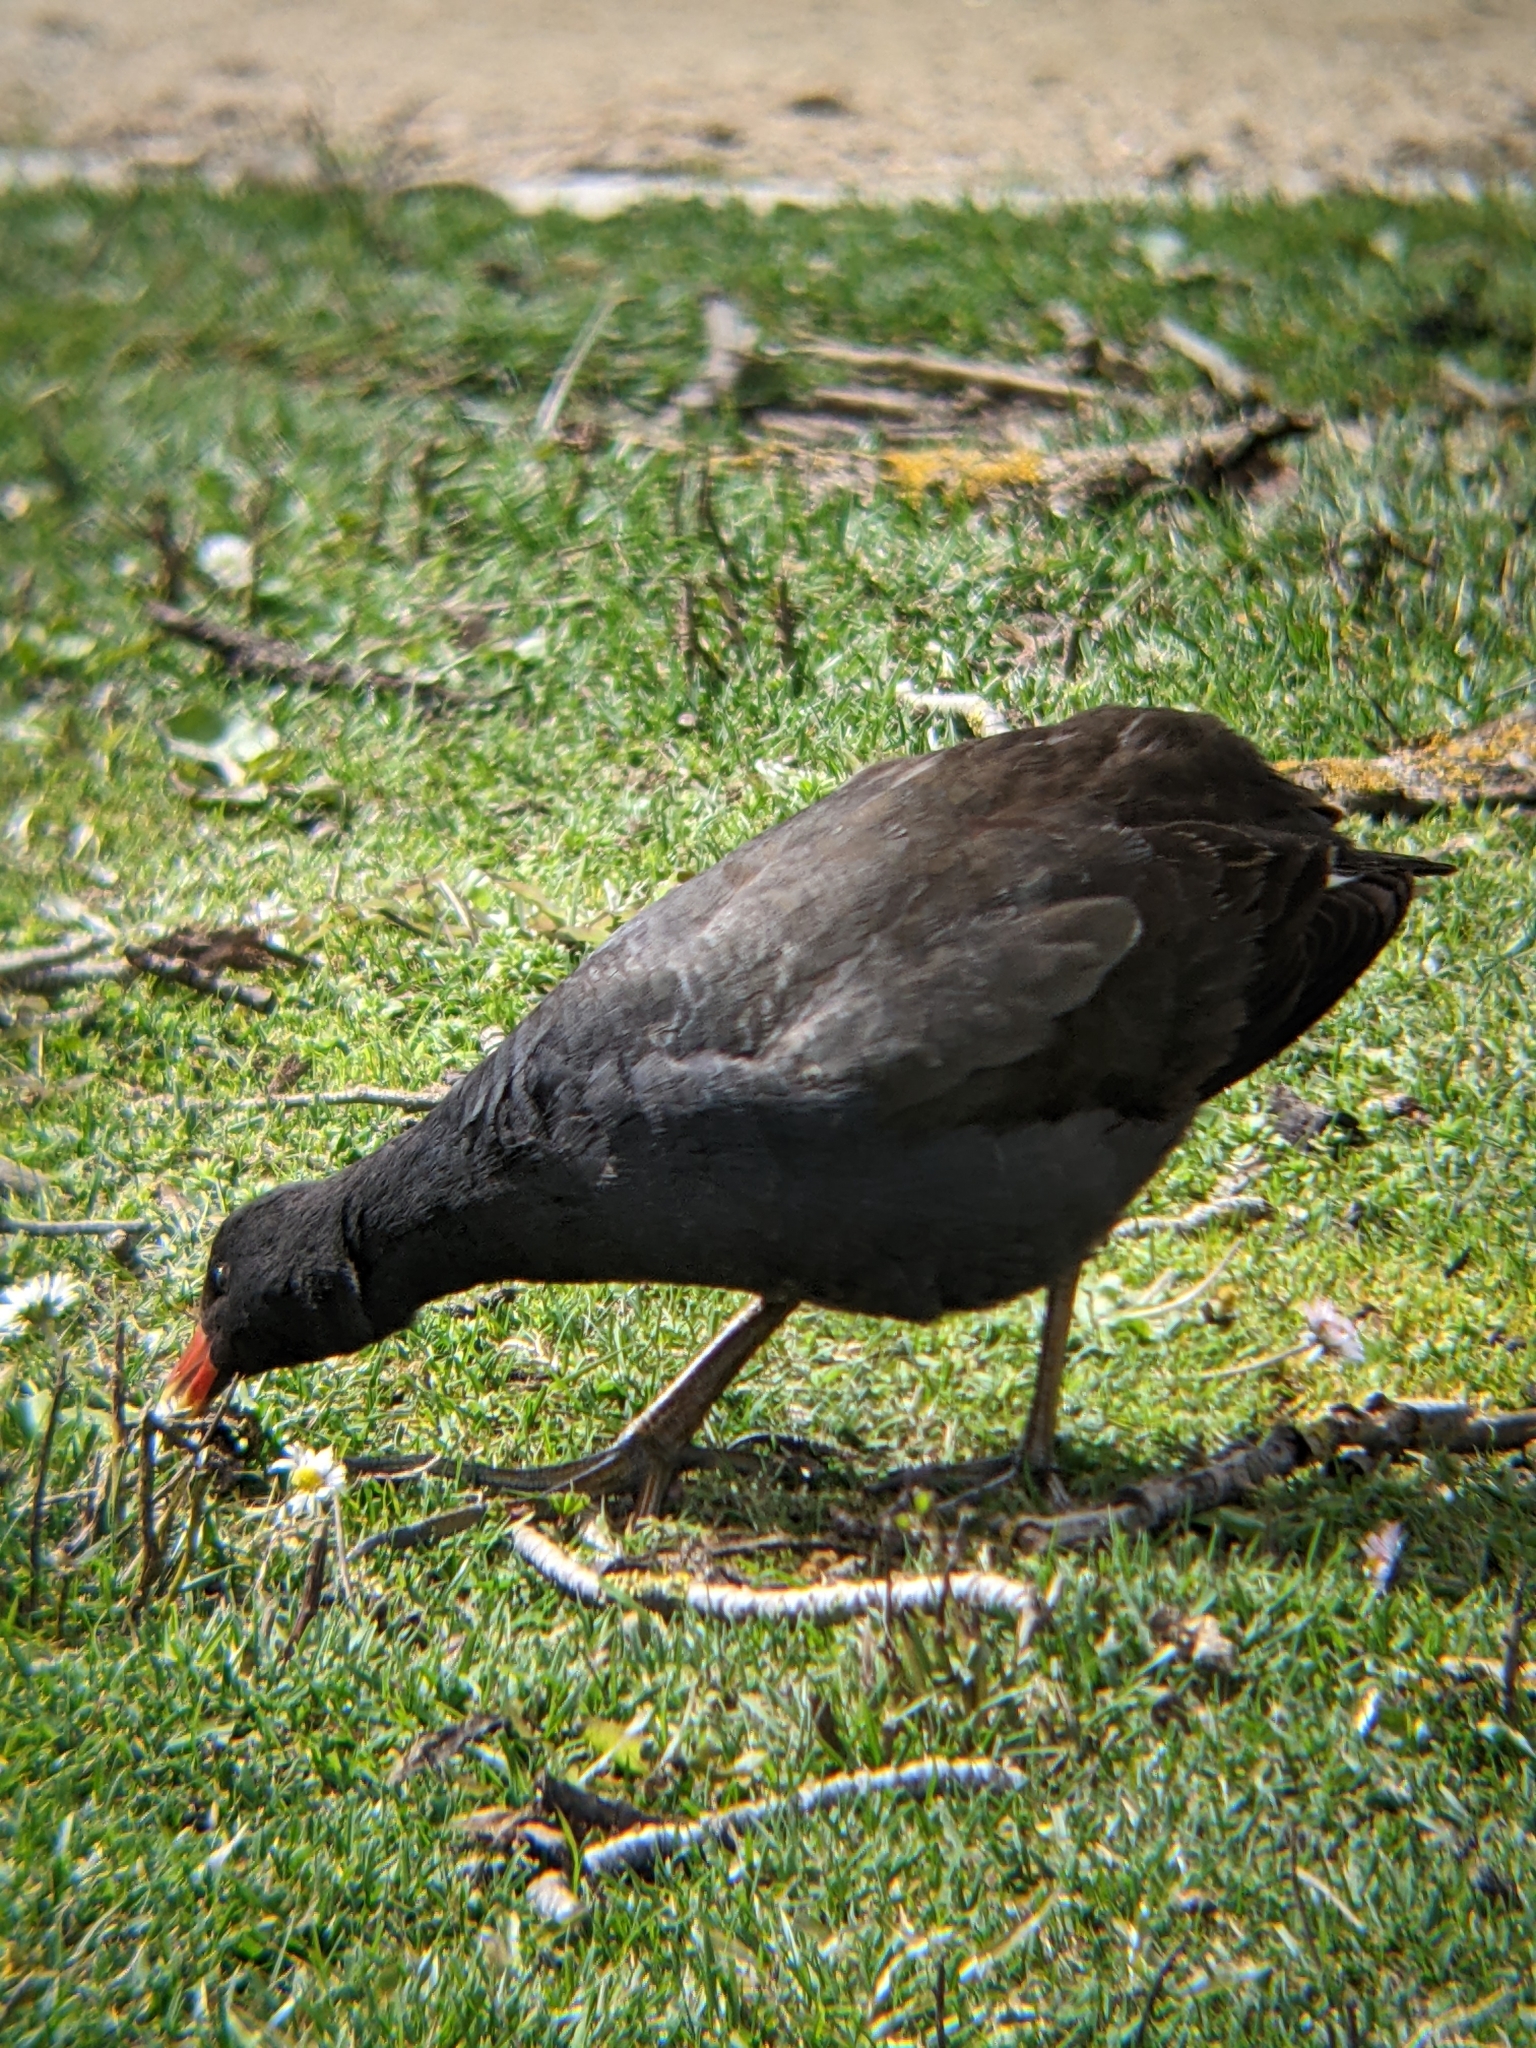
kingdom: Animalia
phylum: Chordata
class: Aves
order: Gruiformes
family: Rallidae
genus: Gallinula
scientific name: Gallinula tenebrosa
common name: Dusky moorhen
